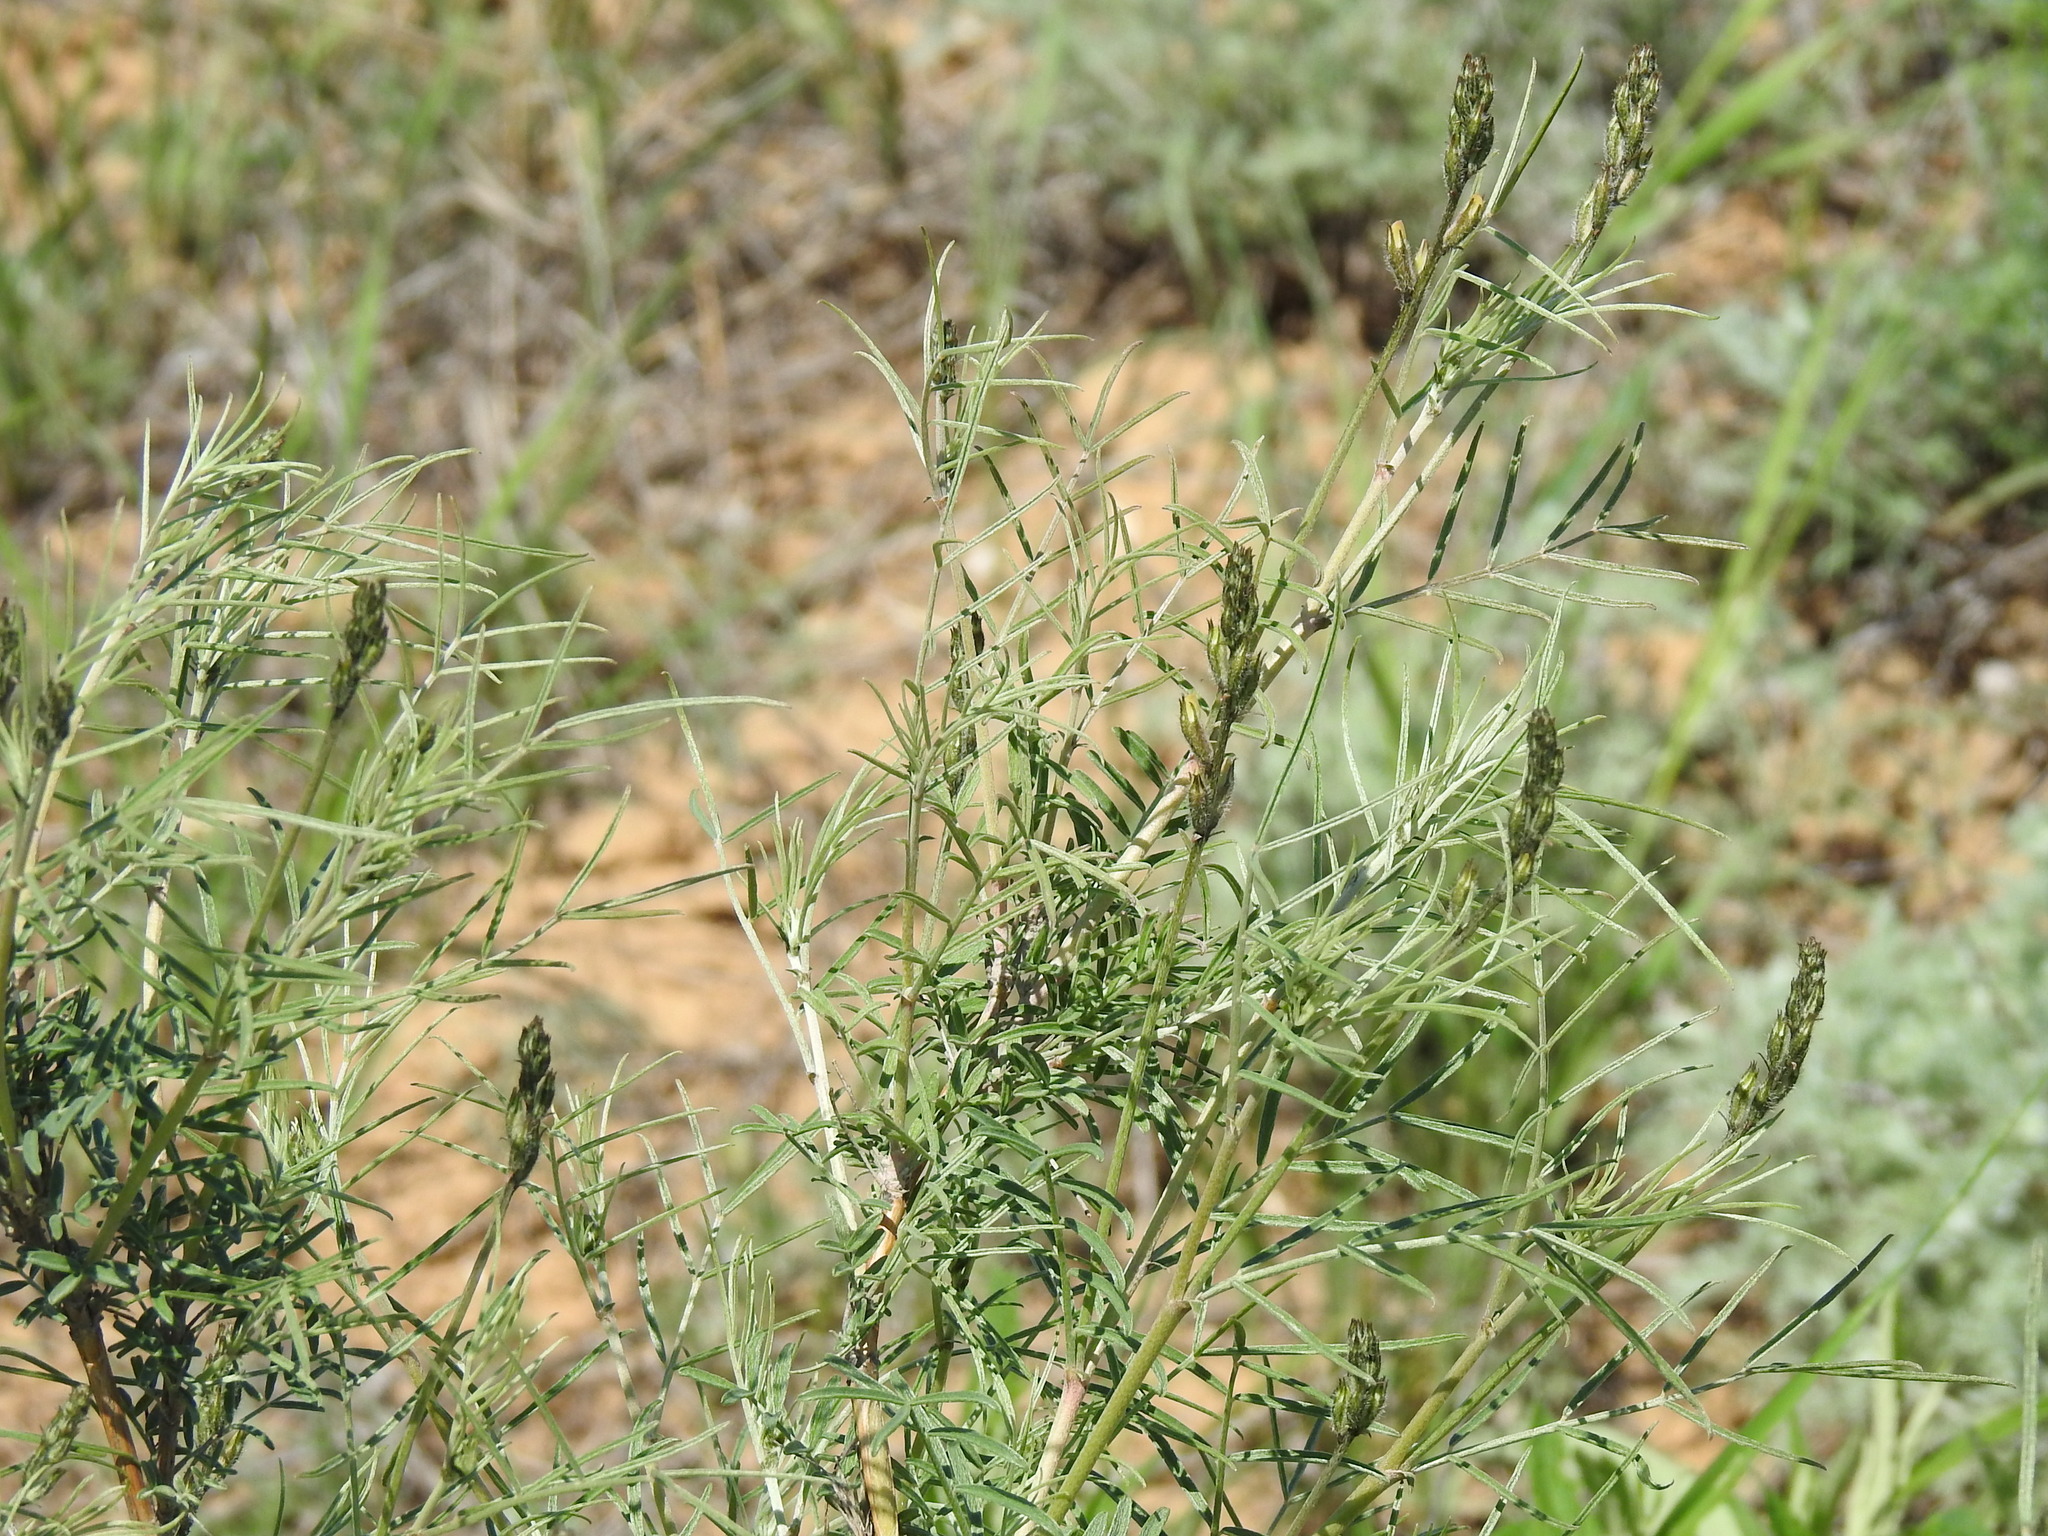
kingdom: Plantae
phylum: Tracheophyta
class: Magnoliopsida
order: Fabales
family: Fabaceae
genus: Astragalus
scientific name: Astragalus brachylobus
